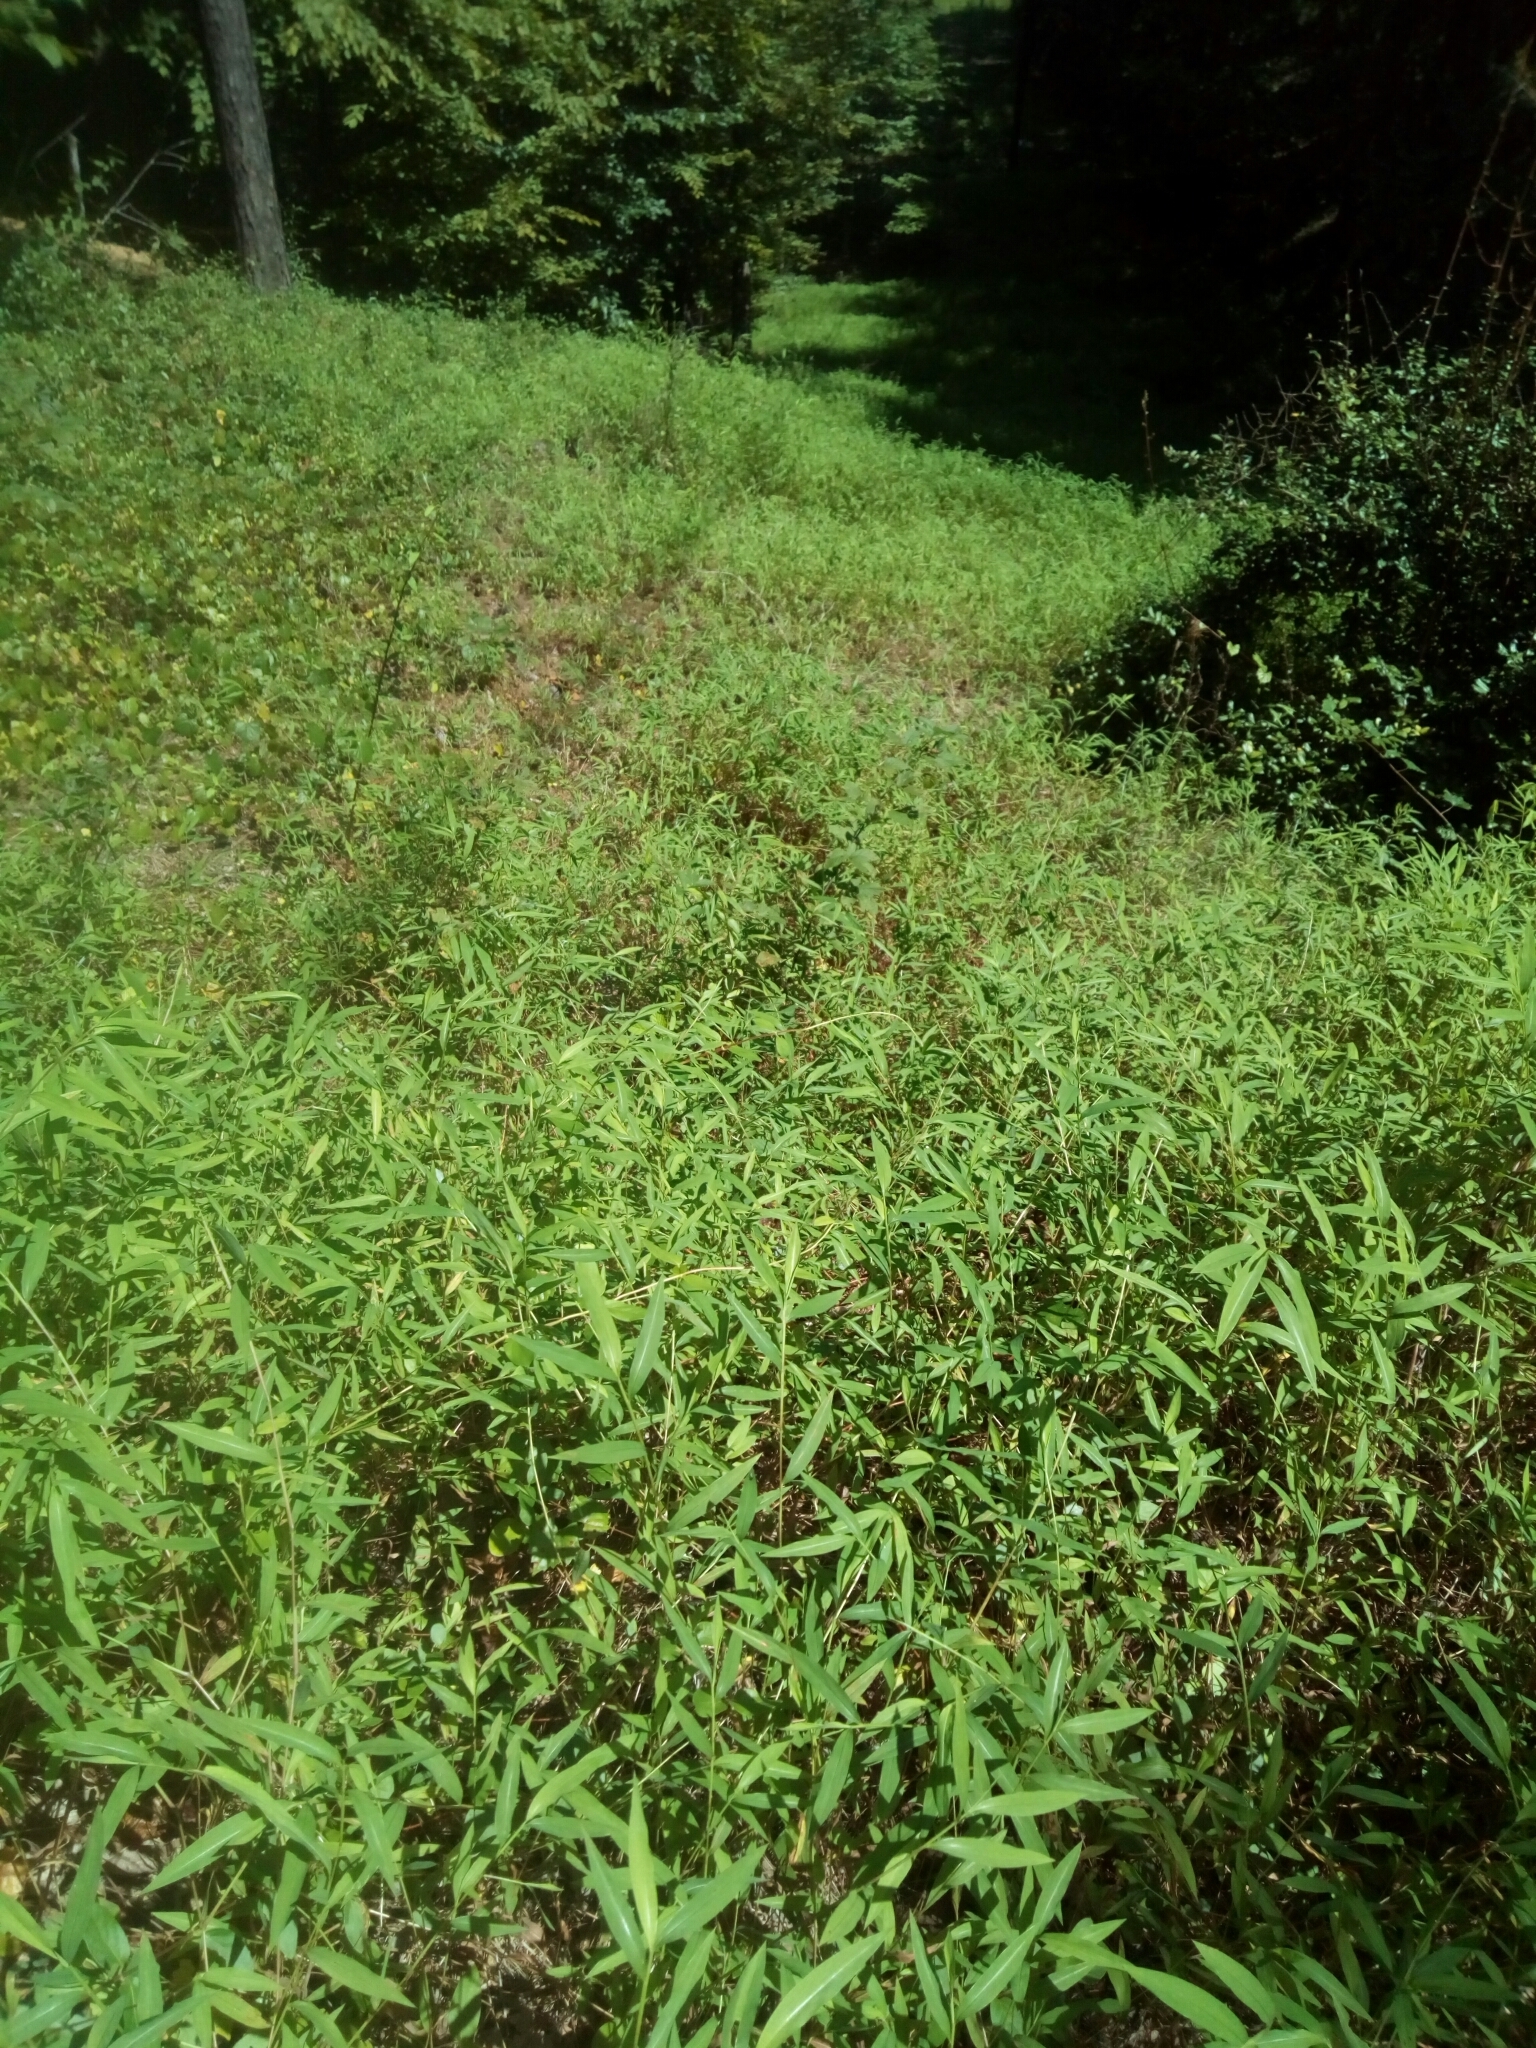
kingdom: Plantae
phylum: Tracheophyta
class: Liliopsida
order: Poales
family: Poaceae
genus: Microstegium
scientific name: Microstegium vimineum
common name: Japanese stiltgrass
